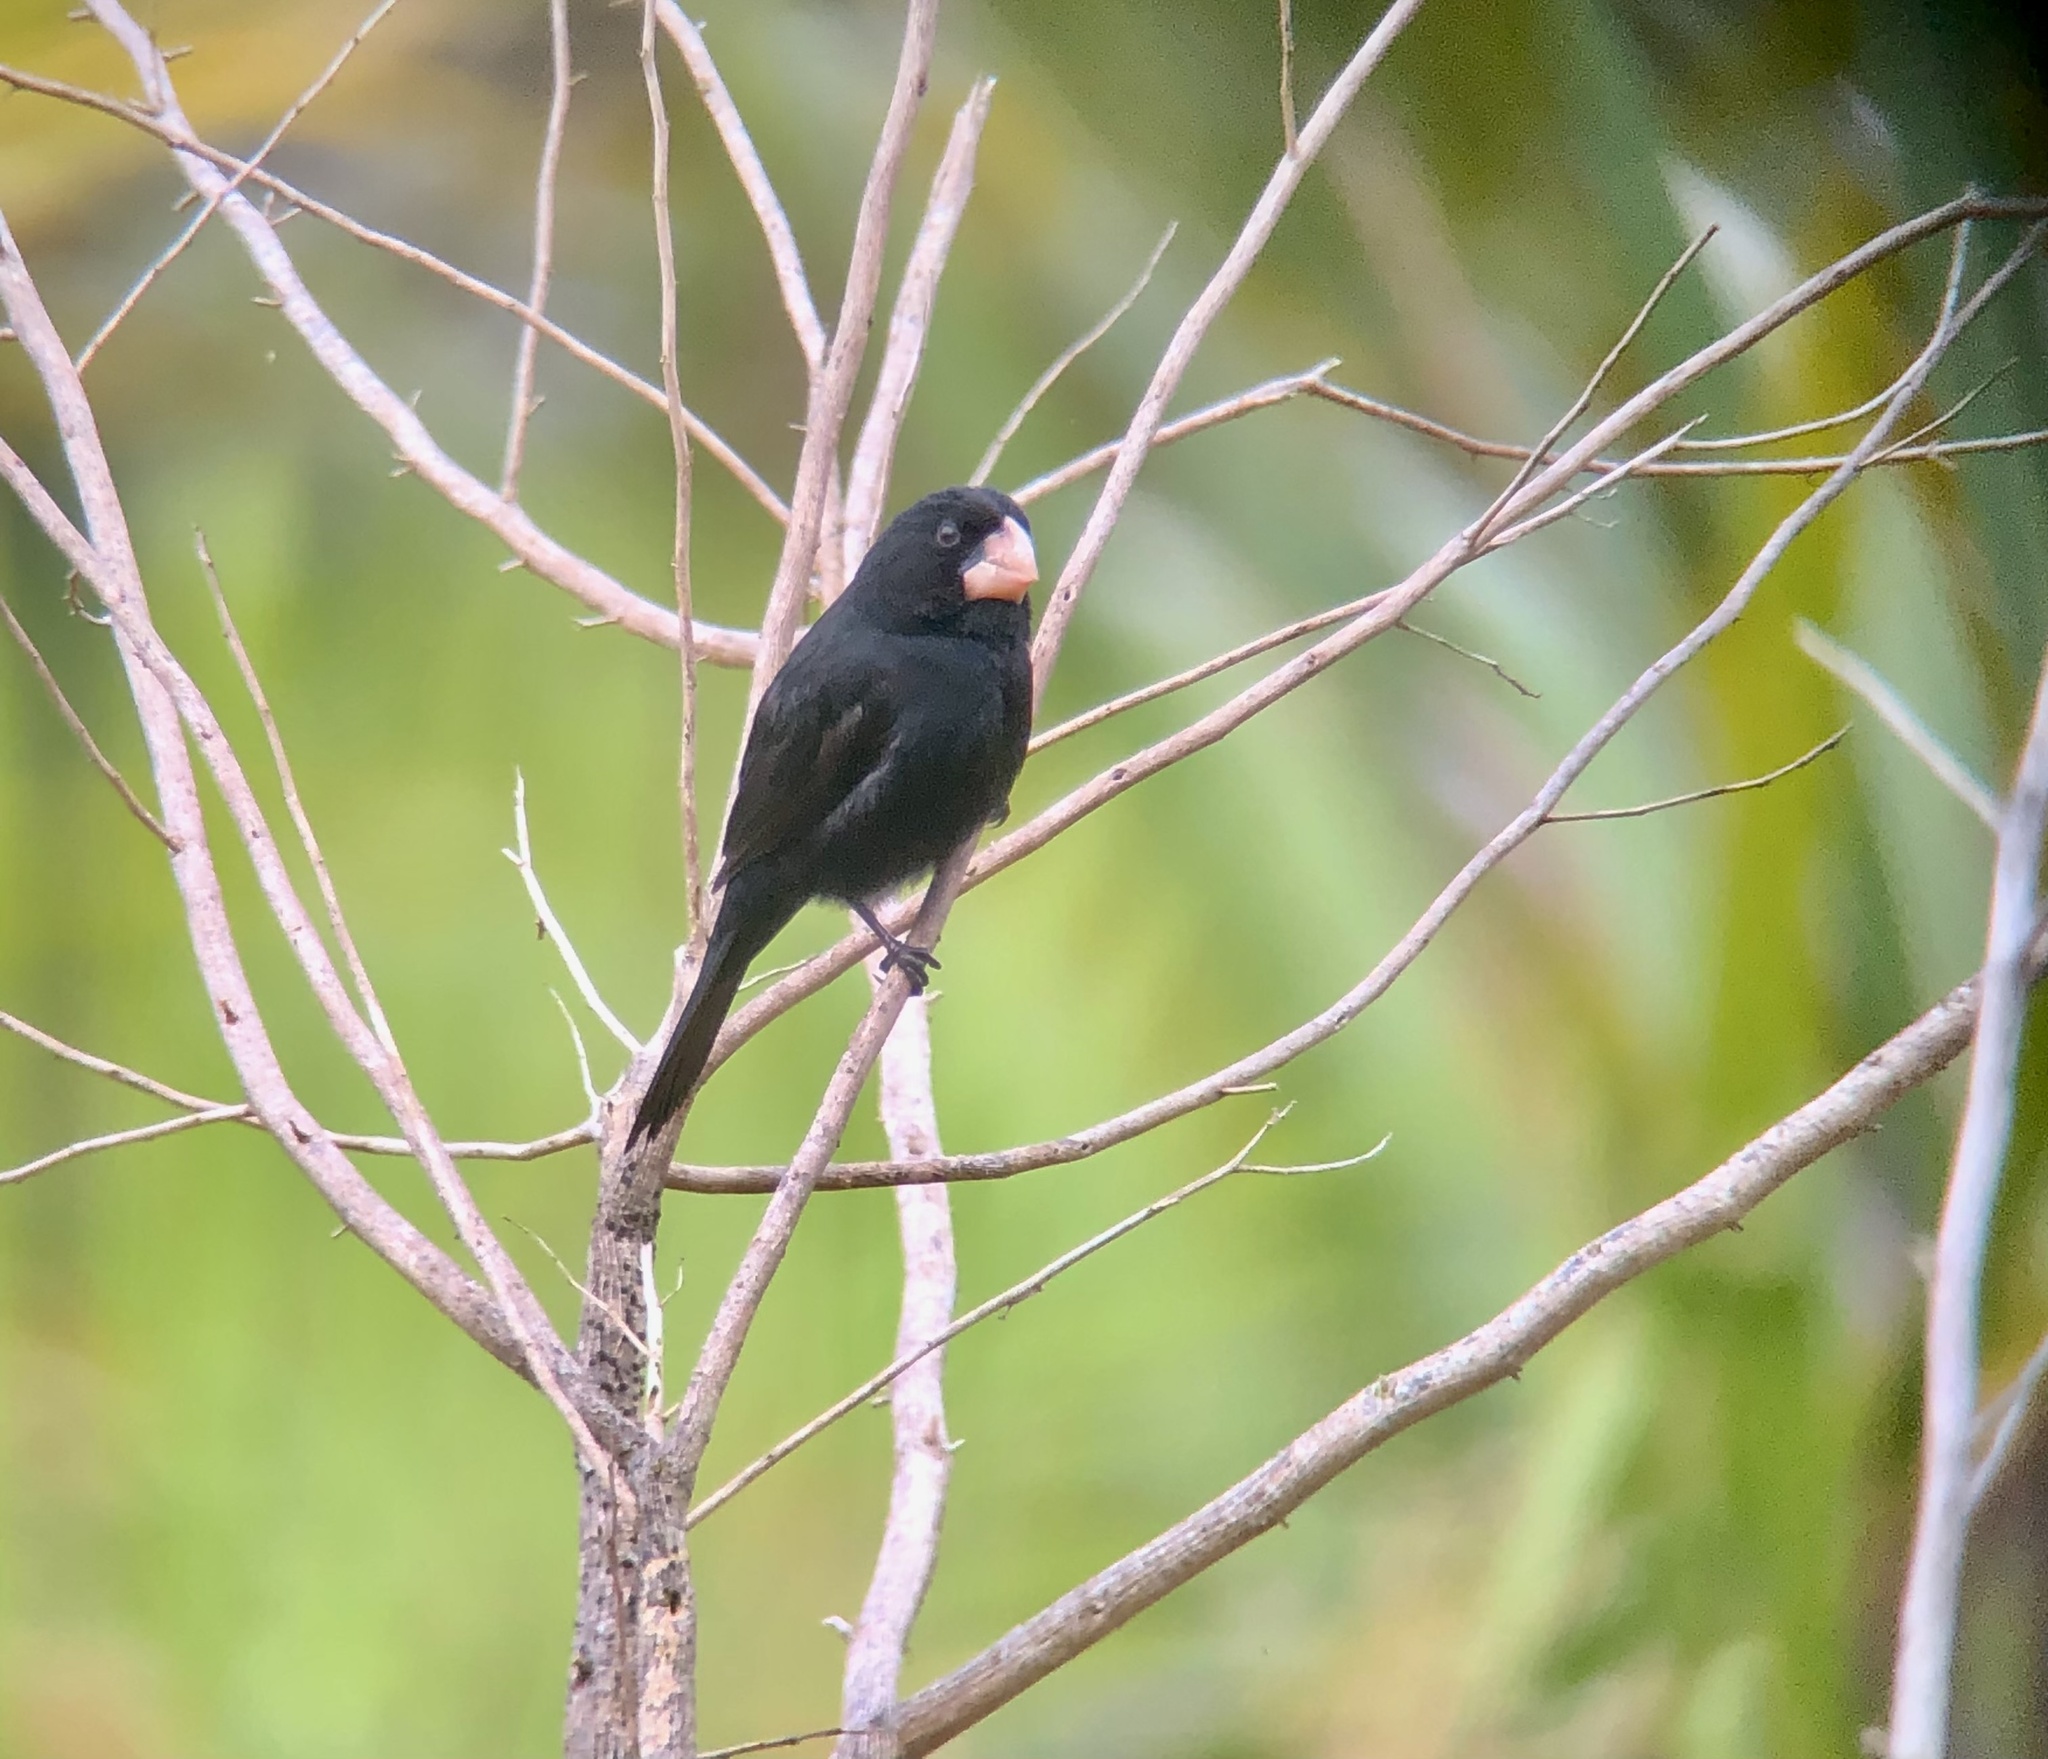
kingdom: Animalia
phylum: Chordata
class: Aves
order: Passeriformes
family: Thraupidae
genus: Sporophila
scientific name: Sporophila nuttingi
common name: Nicaraguan seed-finch
